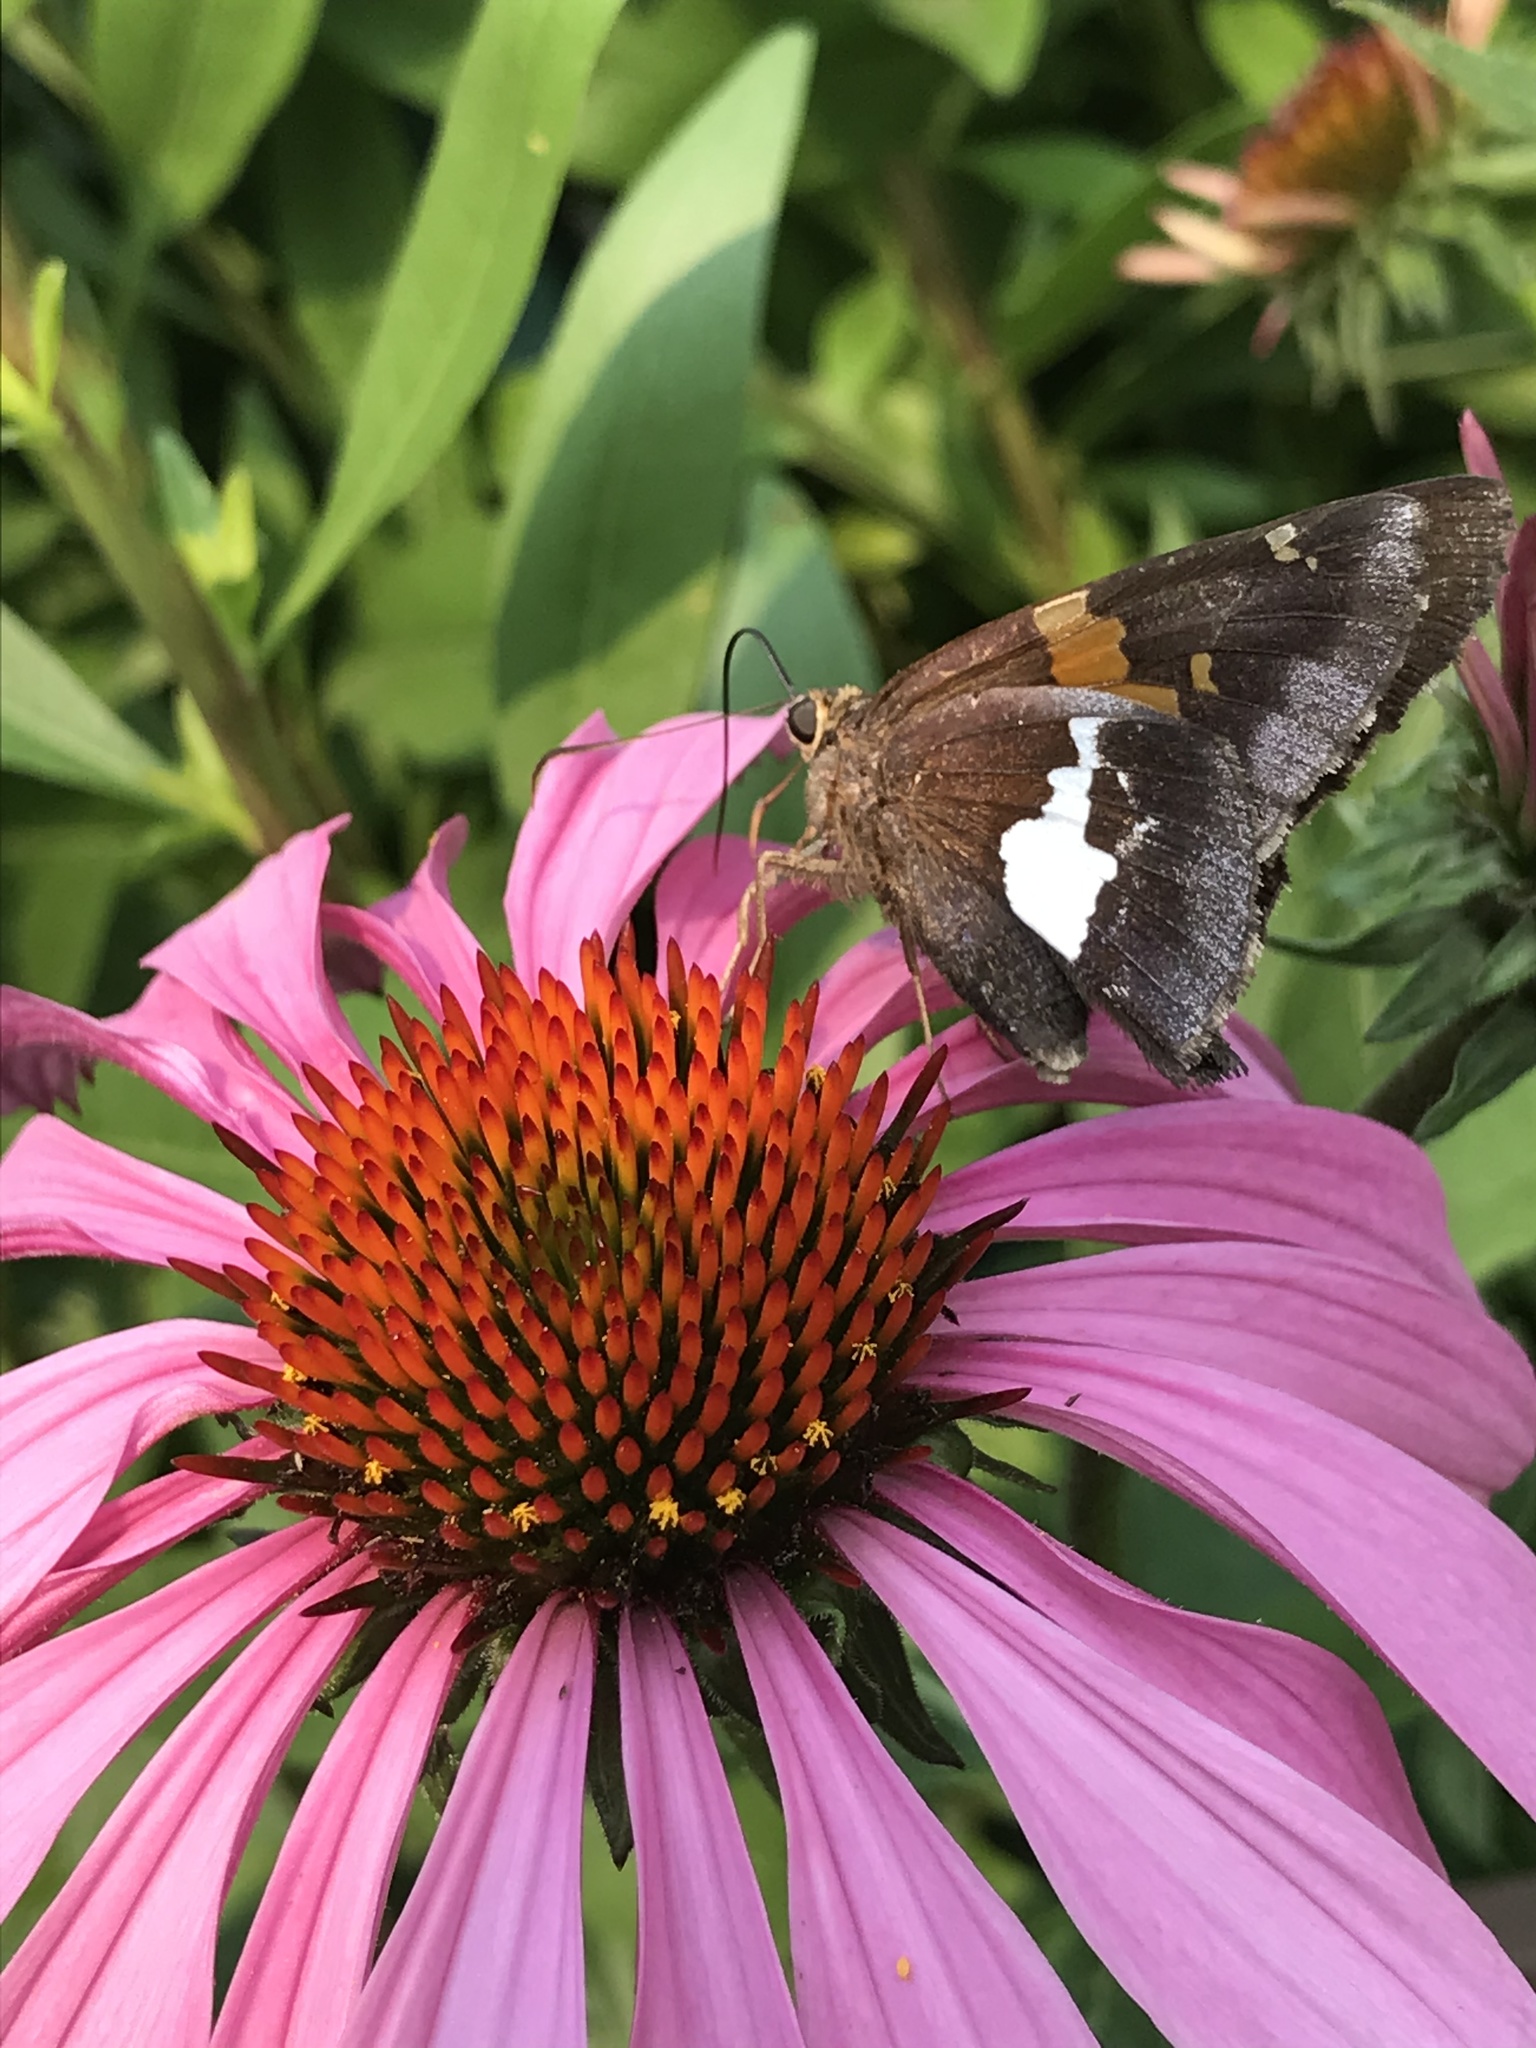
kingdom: Animalia
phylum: Arthropoda
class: Insecta
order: Lepidoptera
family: Hesperiidae
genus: Epargyreus
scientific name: Epargyreus clarus
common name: Silver-spotted skipper
